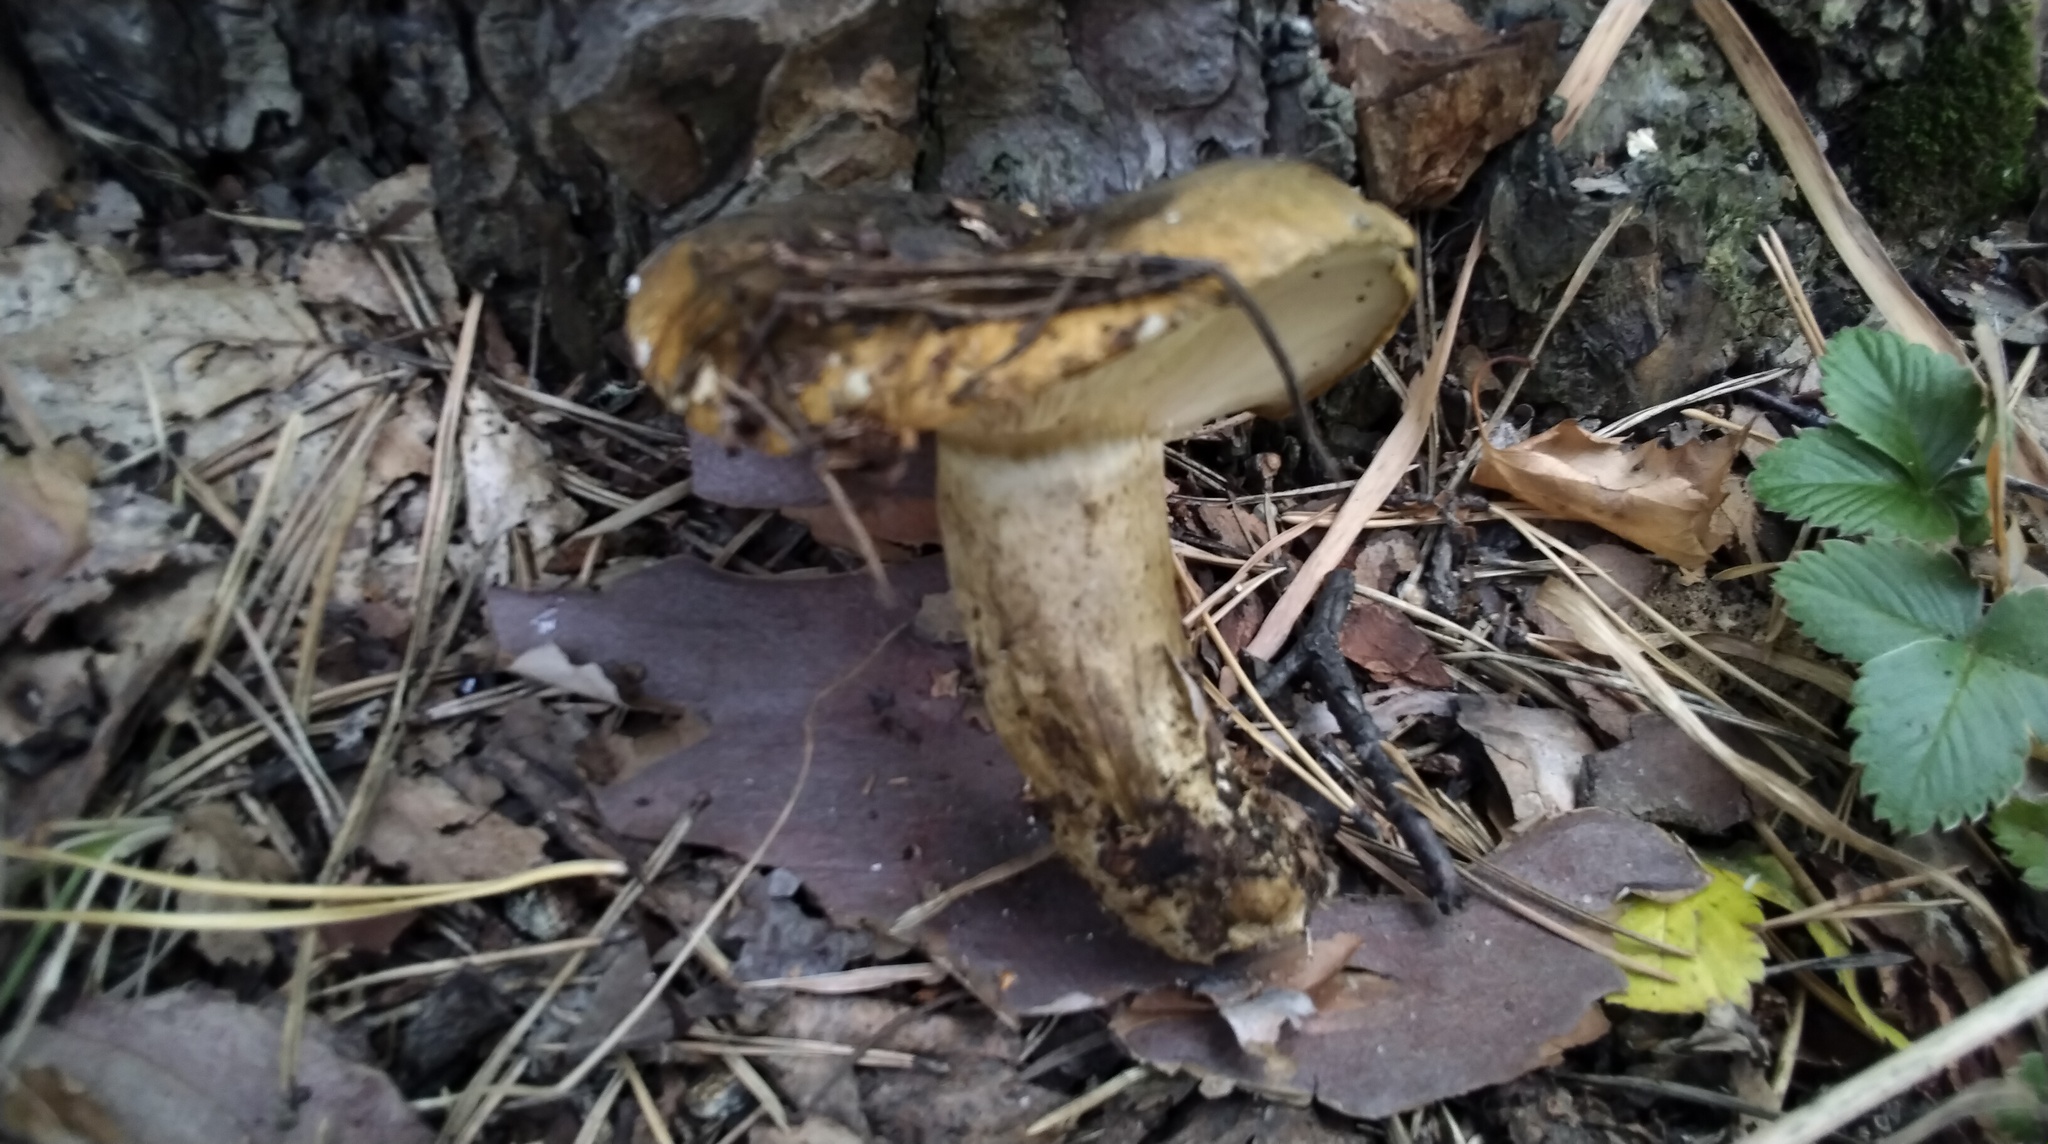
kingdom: Fungi
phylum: Basidiomycota
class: Agaricomycetes
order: Russulales
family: Russulaceae
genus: Lactarius
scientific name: Lactarius turpis
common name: Ugly milk-cap
